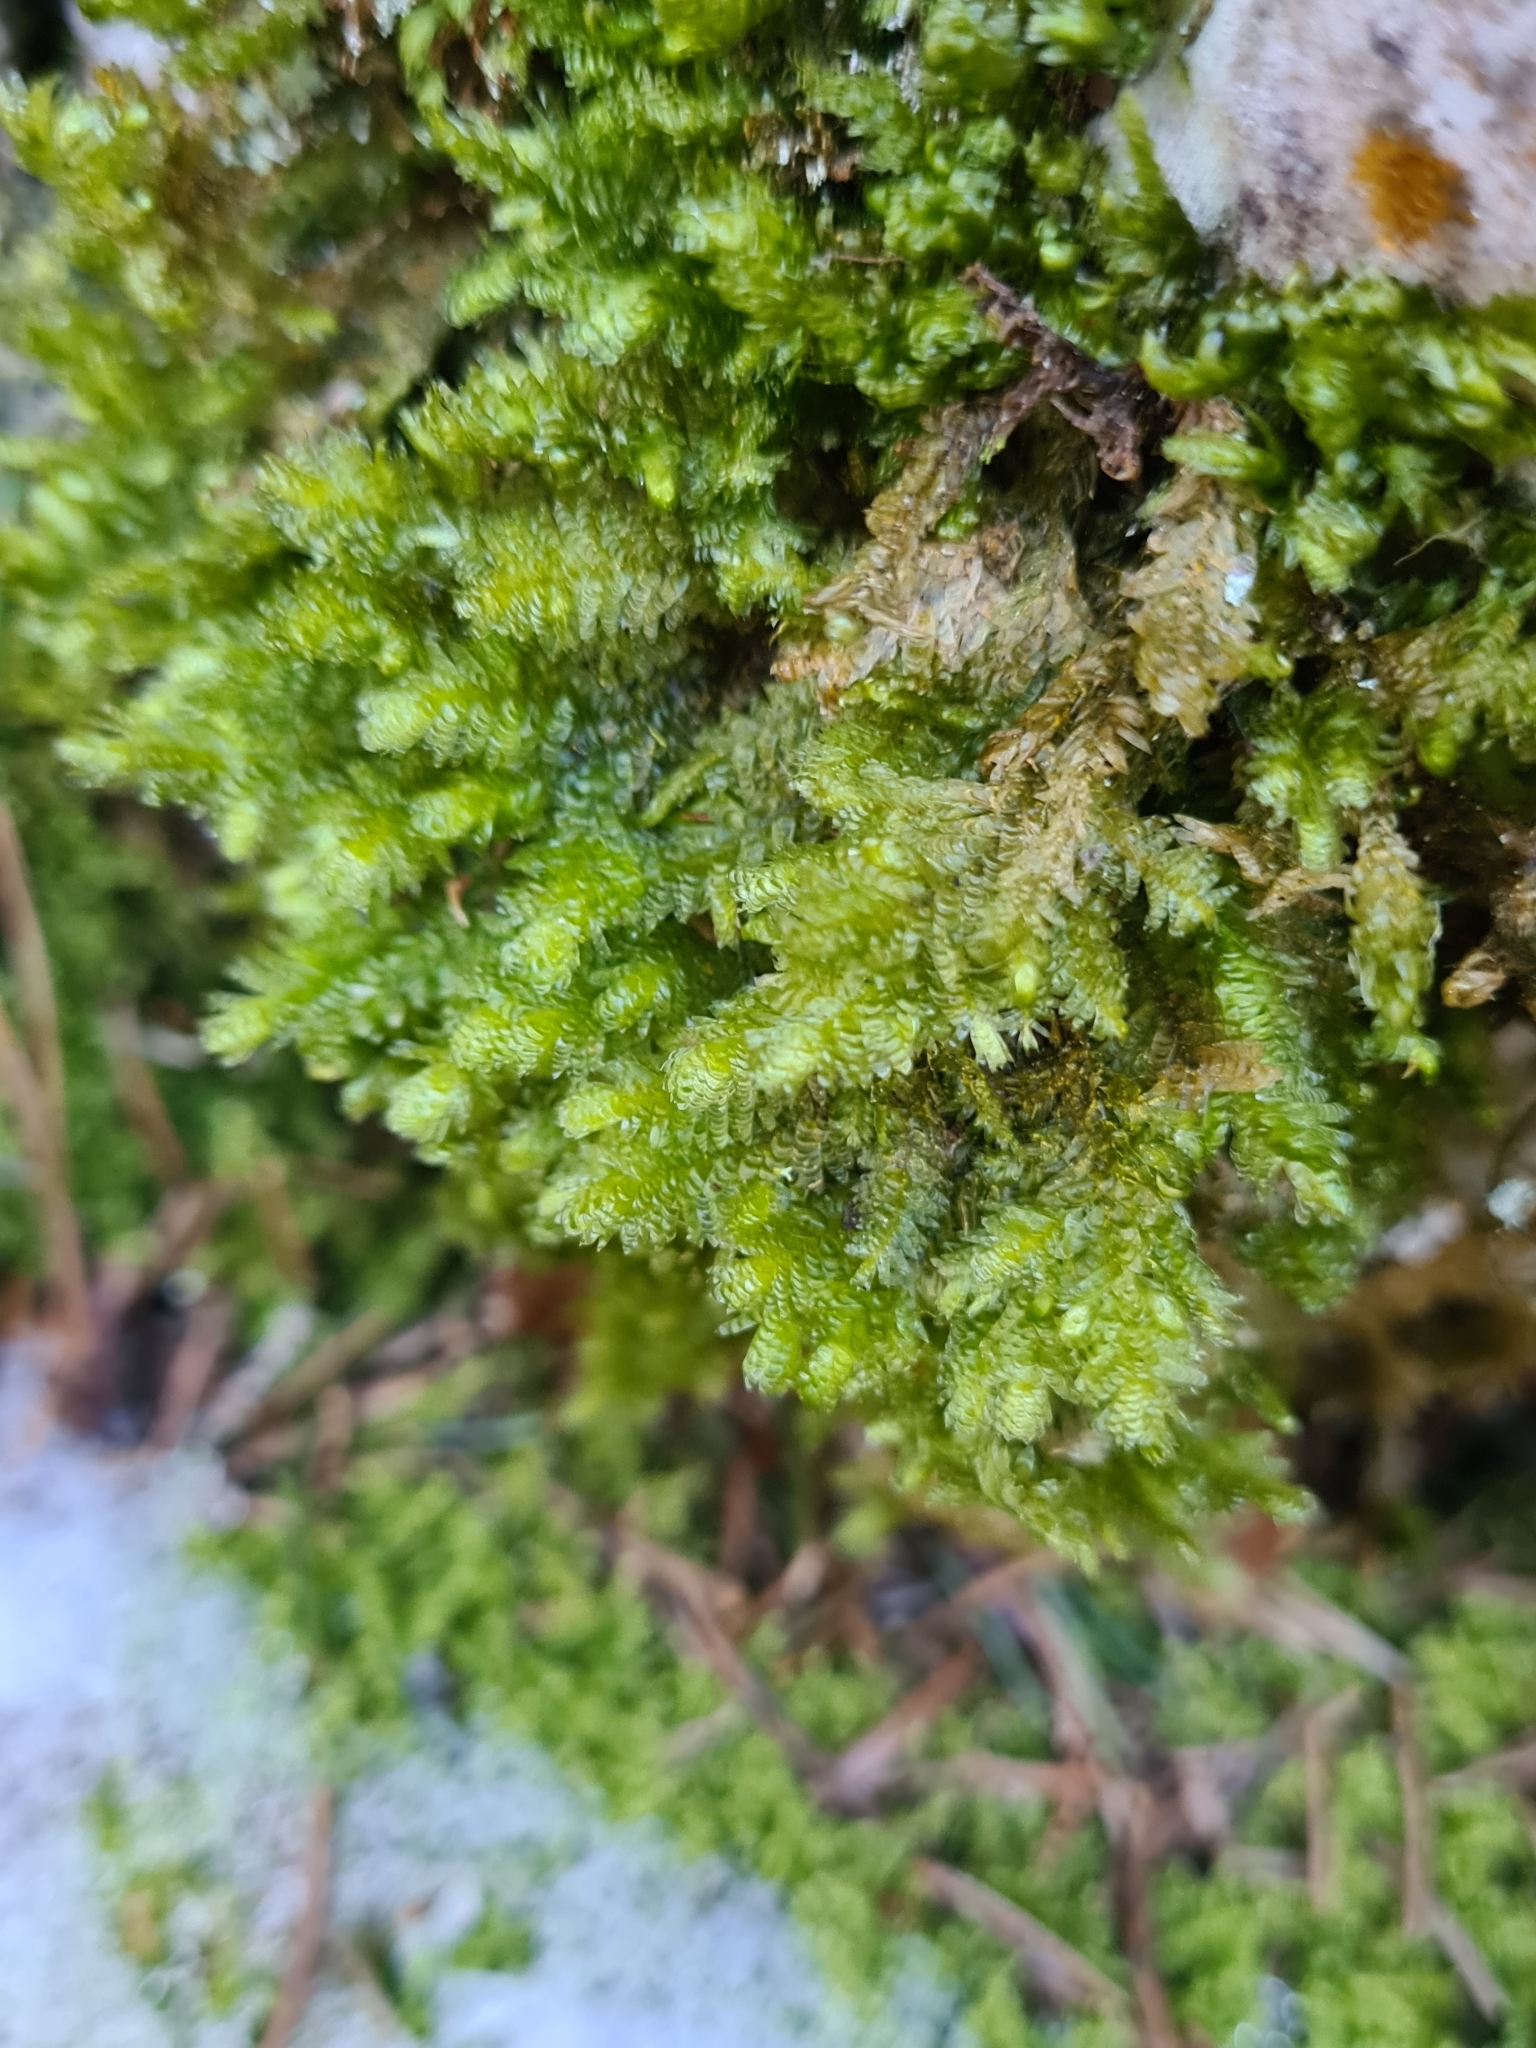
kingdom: Plantae
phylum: Bryophyta
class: Bryopsida
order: Hypnales
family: Neckeraceae
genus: Exsertotheca
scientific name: Exsertotheca crispa
